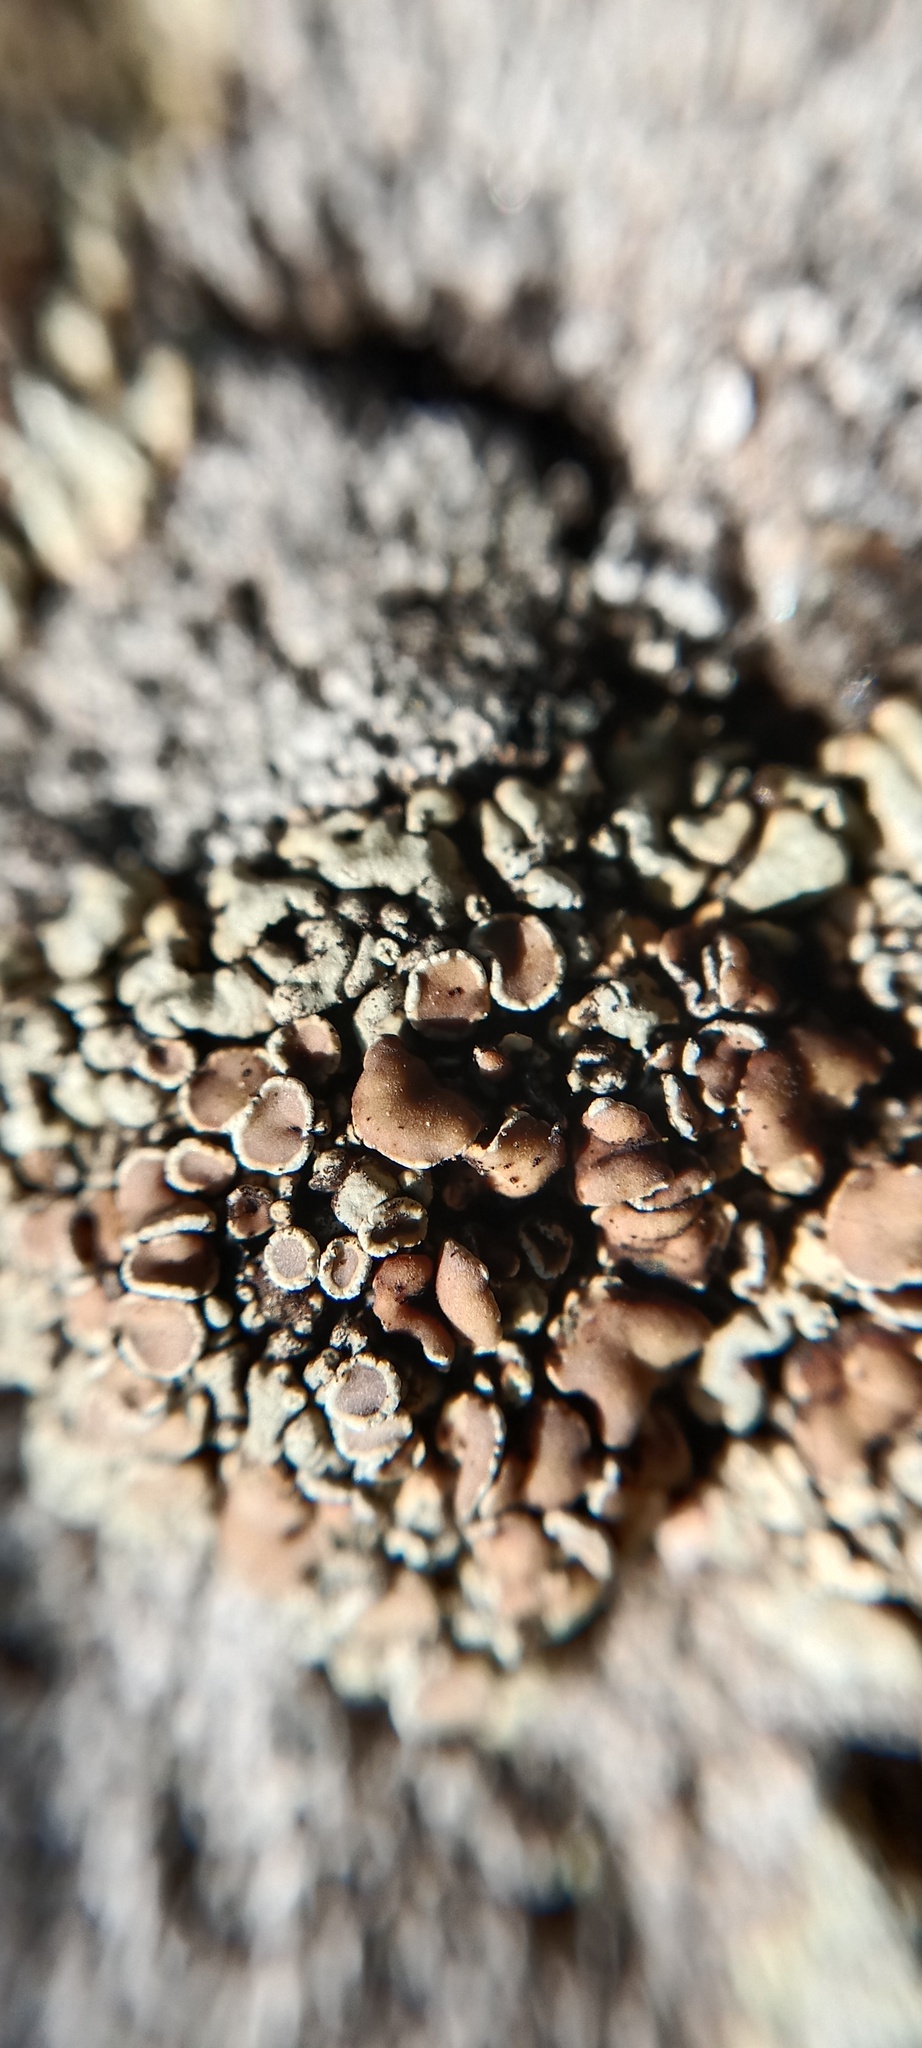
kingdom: Fungi
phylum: Ascomycota
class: Lecanoromycetes
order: Lecanorales
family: Lecanoraceae
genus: Protoparmeliopsis
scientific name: Protoparmeliopsis muralis
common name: Stonewall rim lichen
